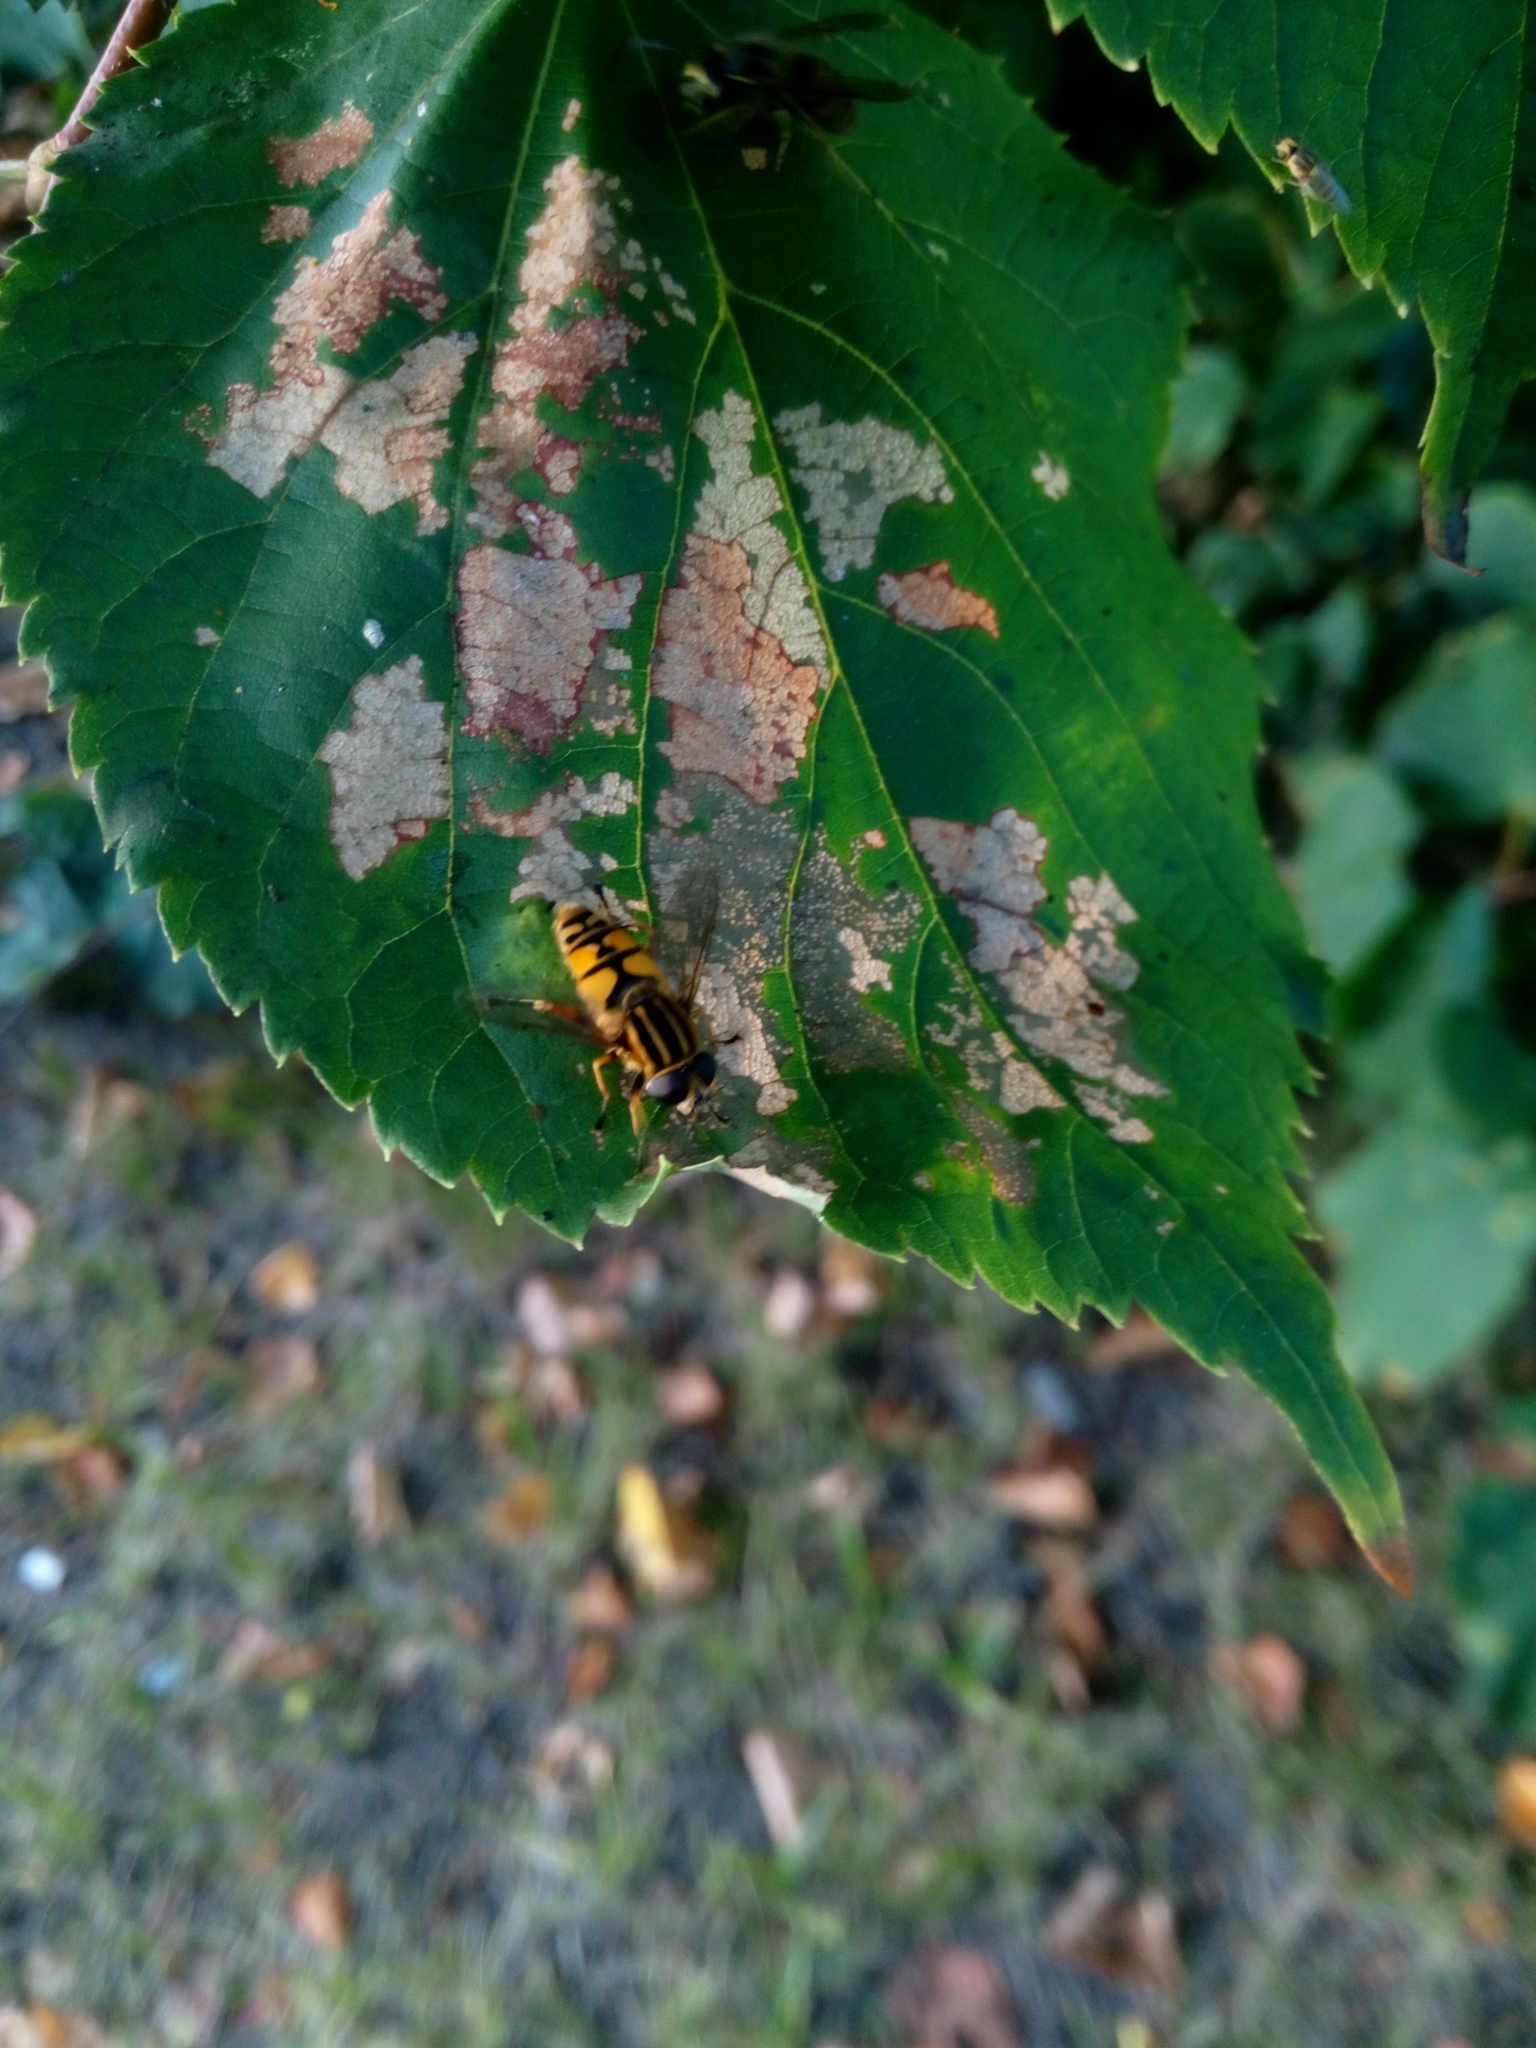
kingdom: Animalia
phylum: Arthropoda
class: Insecta
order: Diptera
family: Syrphidae
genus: Helophilus
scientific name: Helophilus pendulus
